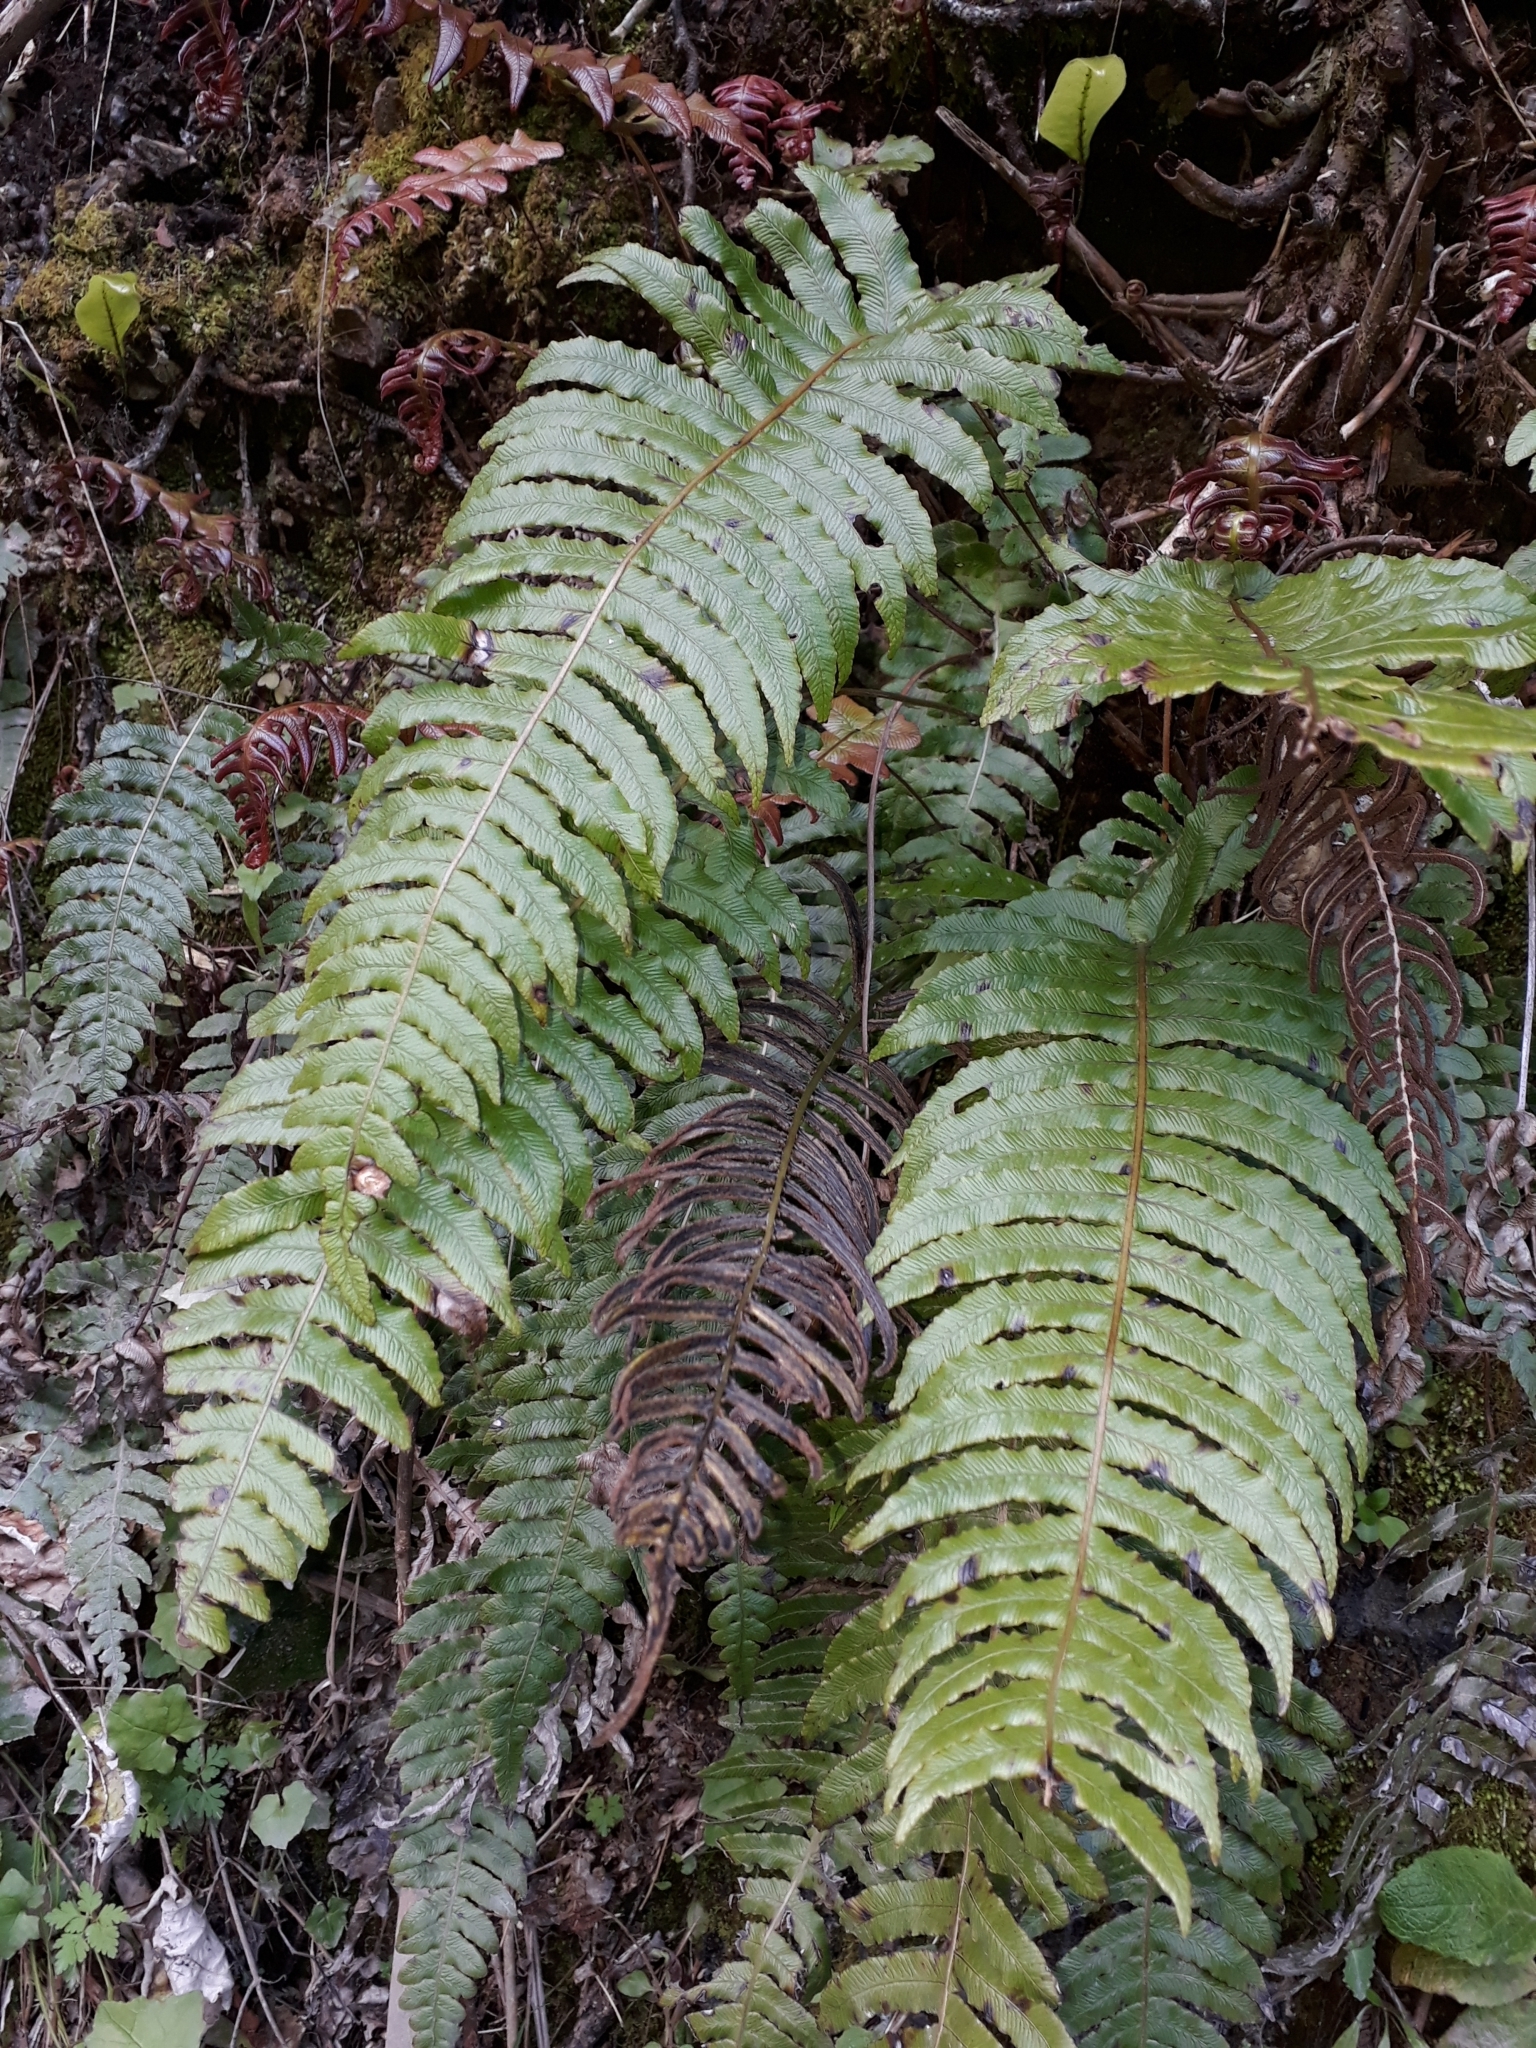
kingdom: Plantae
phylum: Tracheophyta
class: Polypodiopsida
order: Polypodiales
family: Blechnaceae
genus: Cranfillia
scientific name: Cranfillia deltoides
